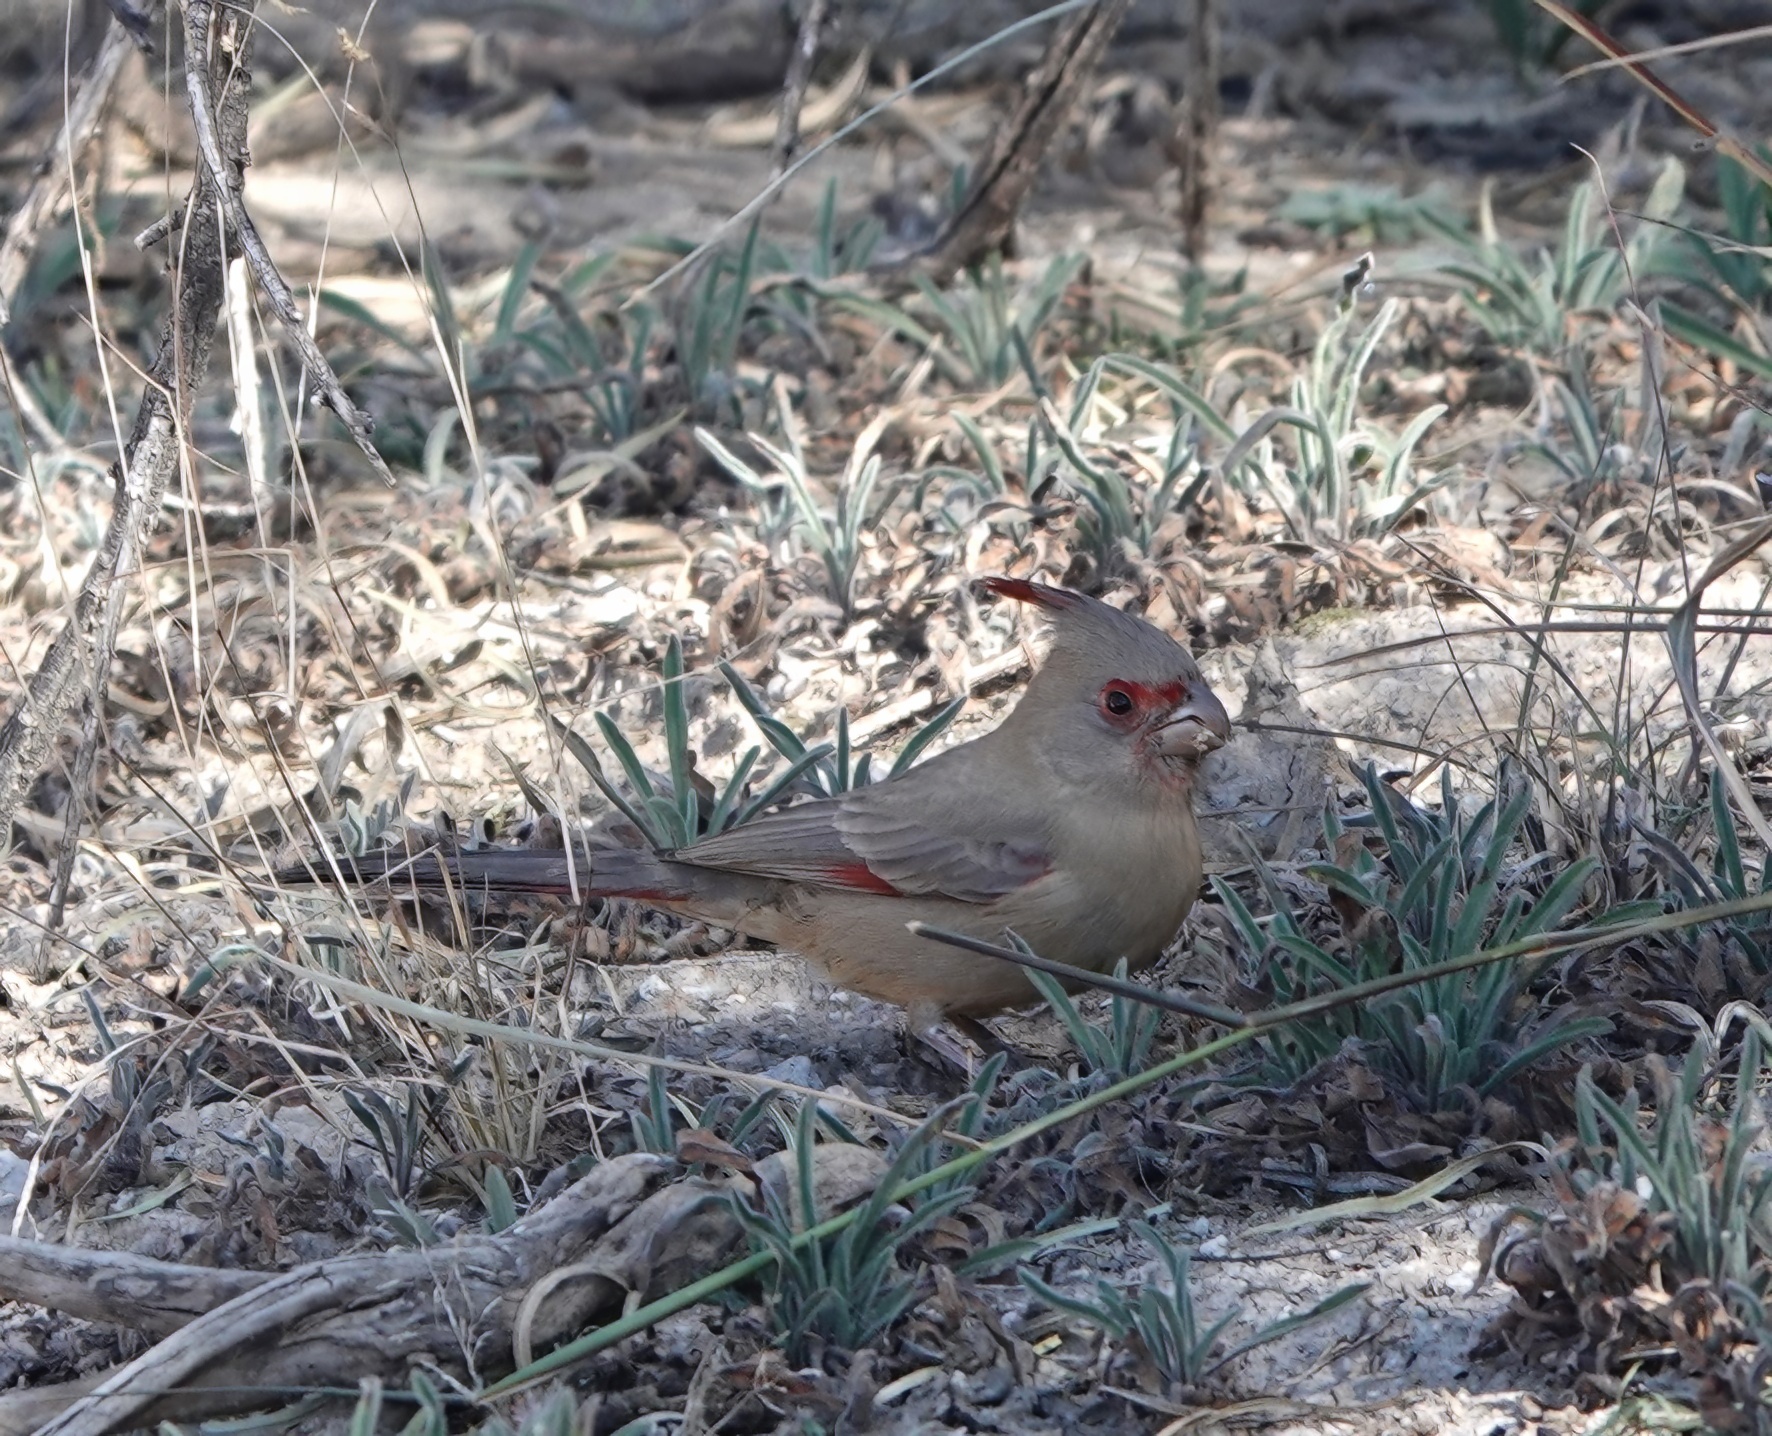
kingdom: Animalia
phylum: Chordata
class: Aves
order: Passeriformes
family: Cardinalidae
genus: Cardinalis
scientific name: Cardinalis sinuatus
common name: Pyrrhuloxia
